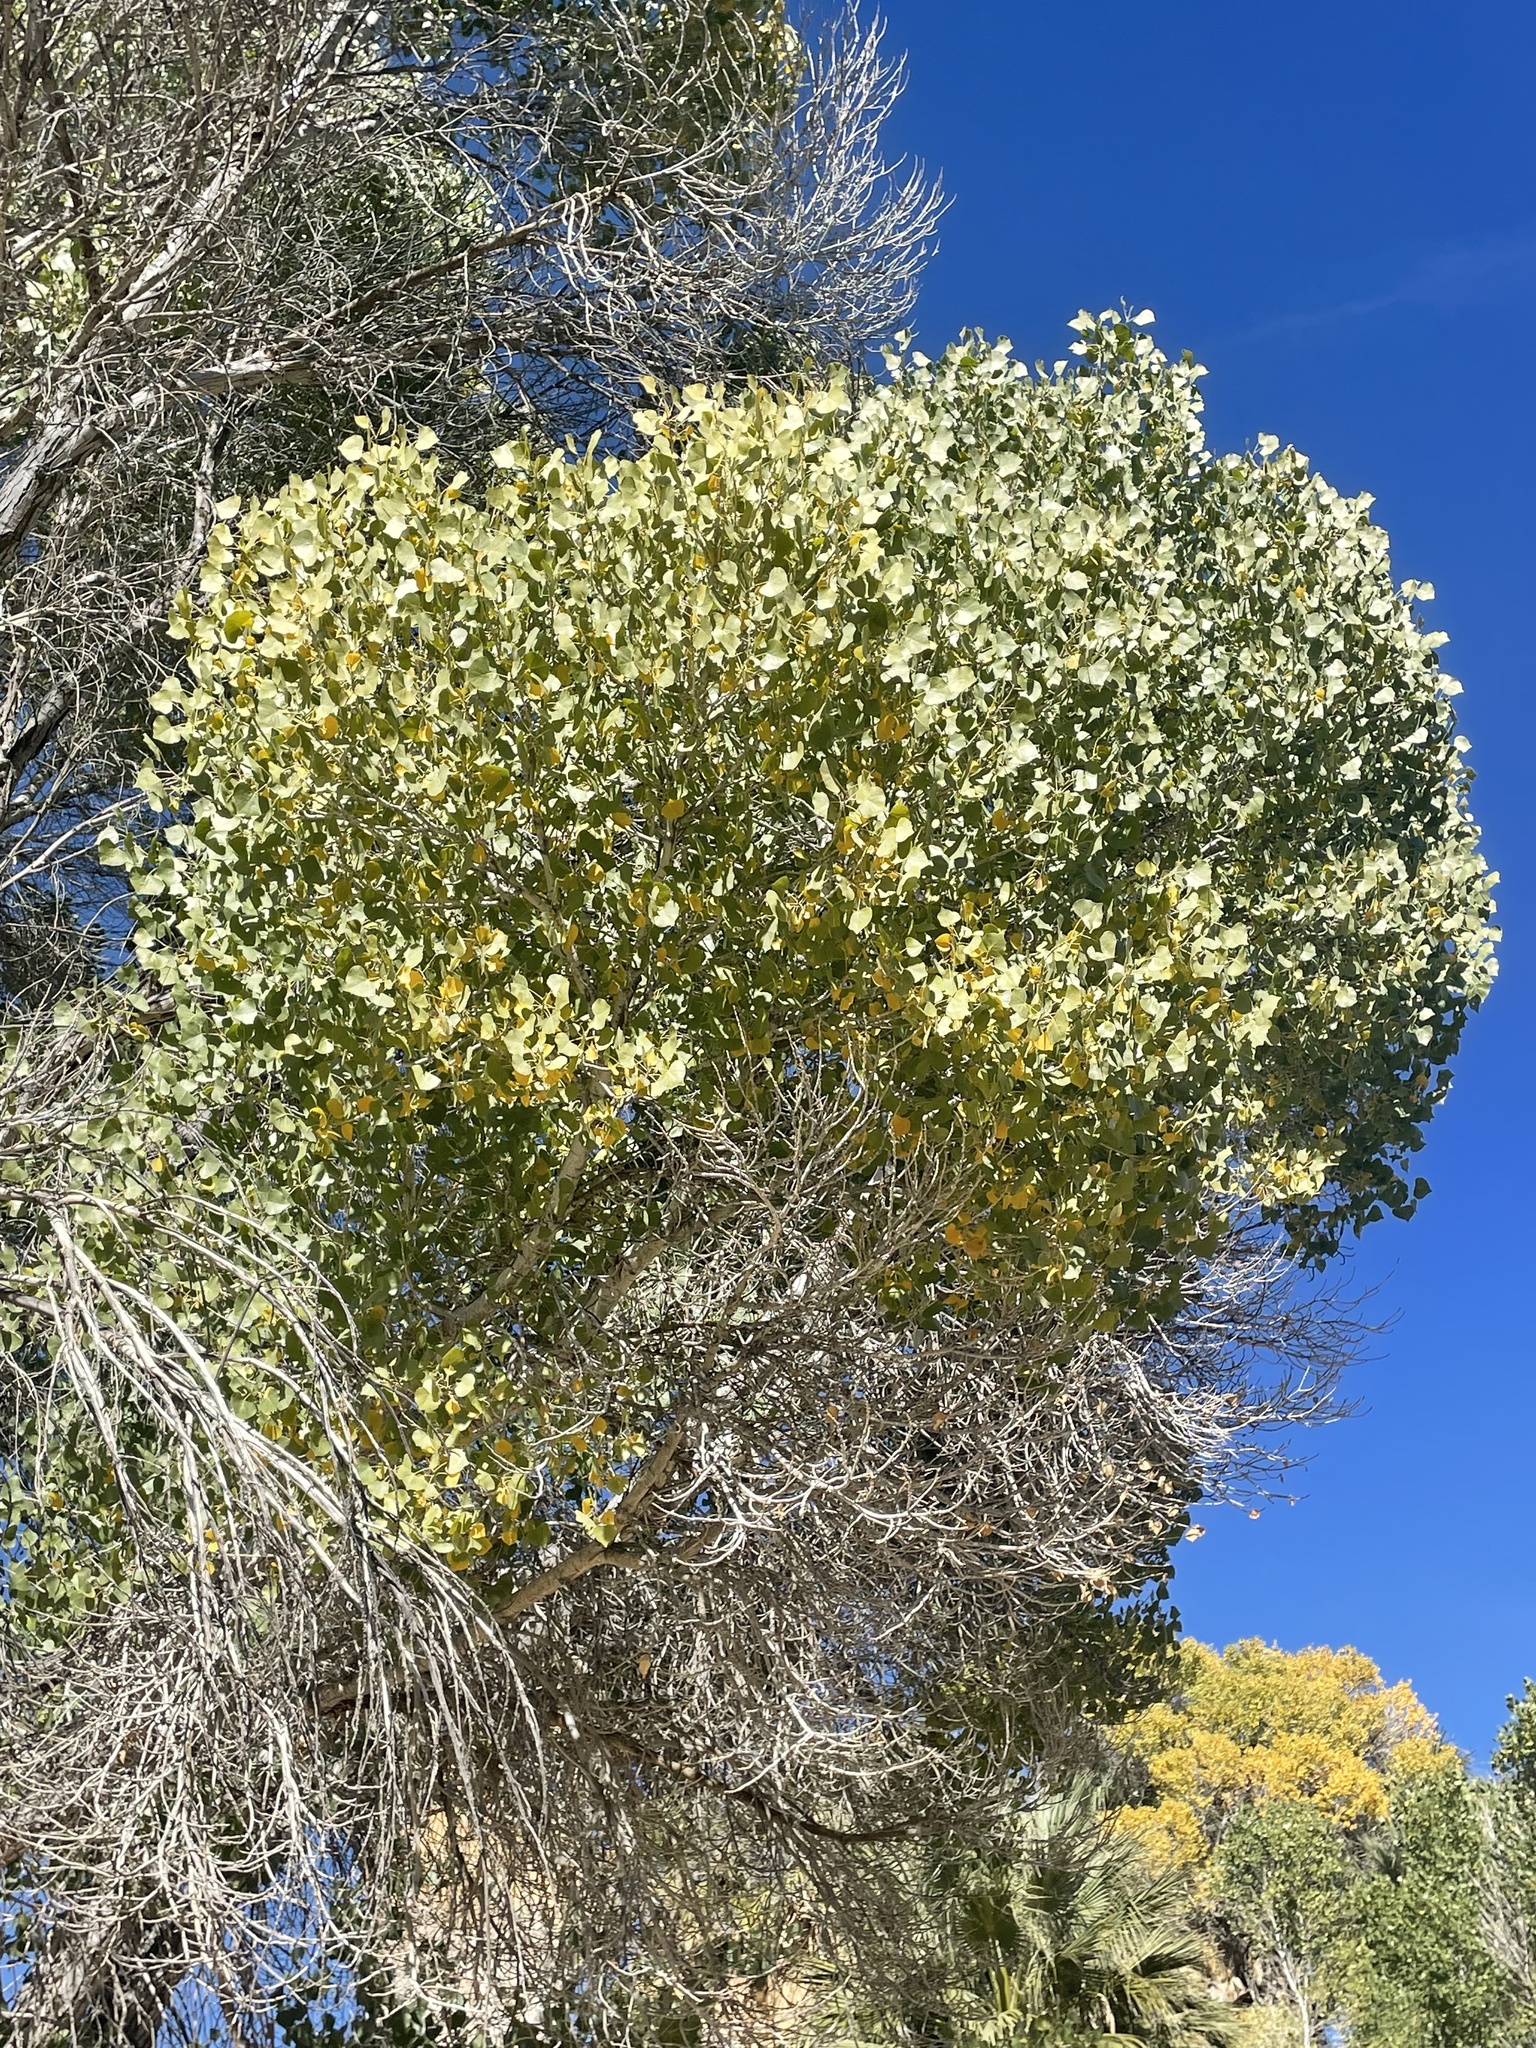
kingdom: Plantae
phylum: Tracheophyta
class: Magnoliopsida
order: Malpighiales
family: Salicaceae
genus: Populus
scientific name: Populus fremontii
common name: Fremont's cottonwood
